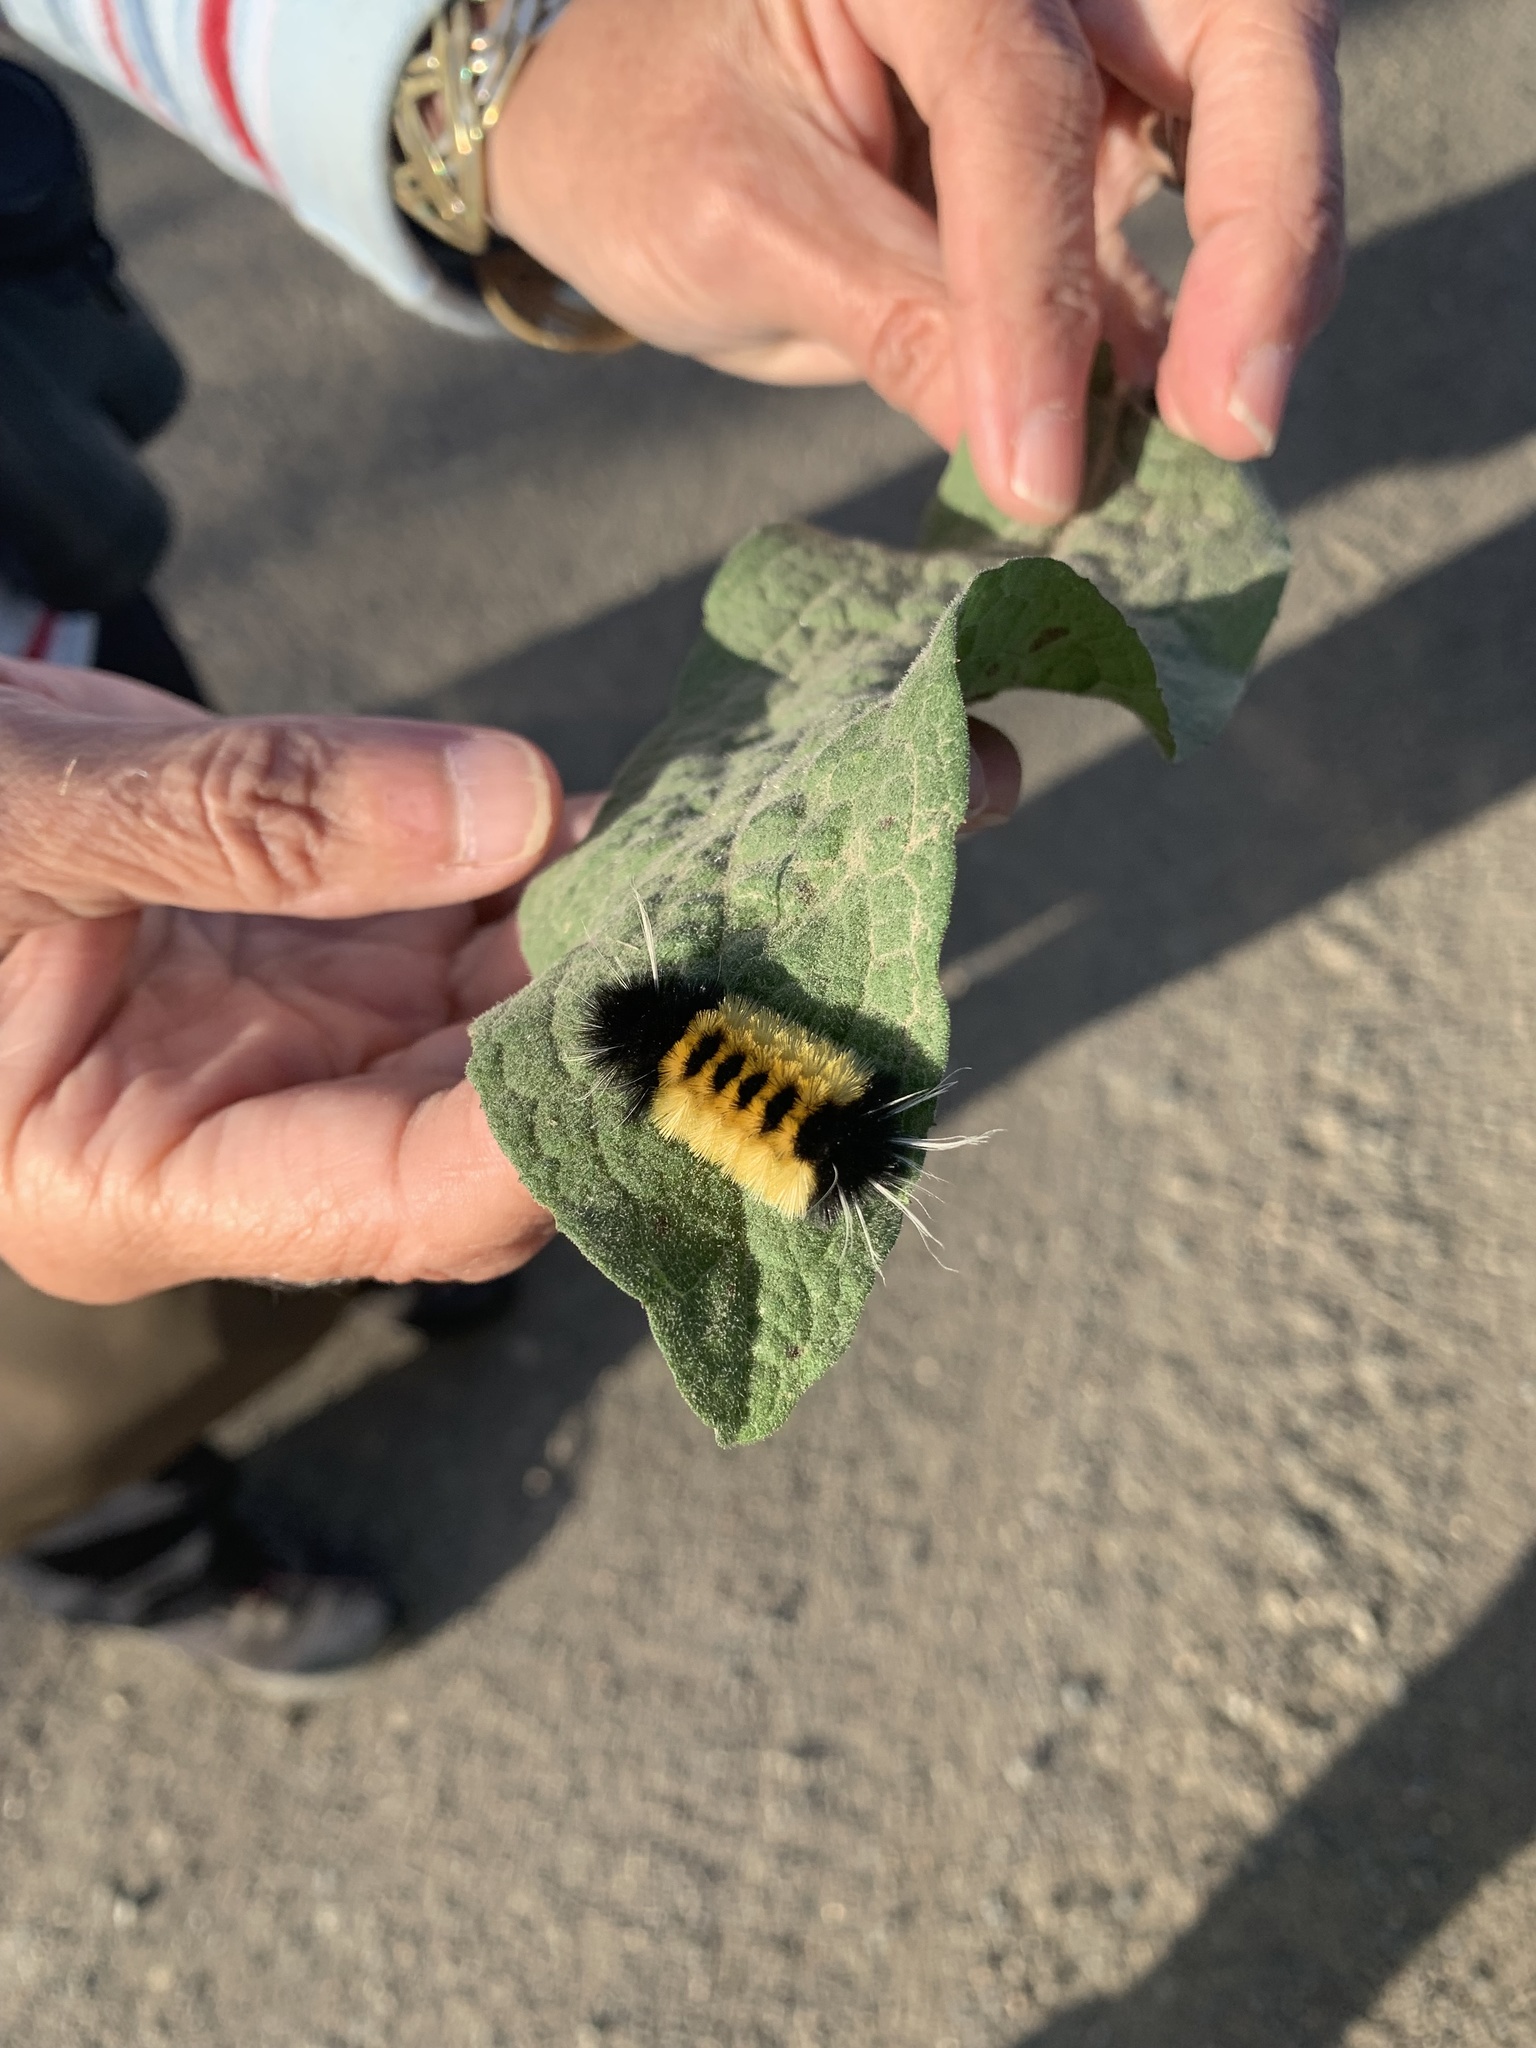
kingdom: Animalia
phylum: Arthropoda
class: Insecta
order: Lepidoptera
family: Erebidae
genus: Lophocampa
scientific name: Lophocampa maculata
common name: Spotted tussock moth
